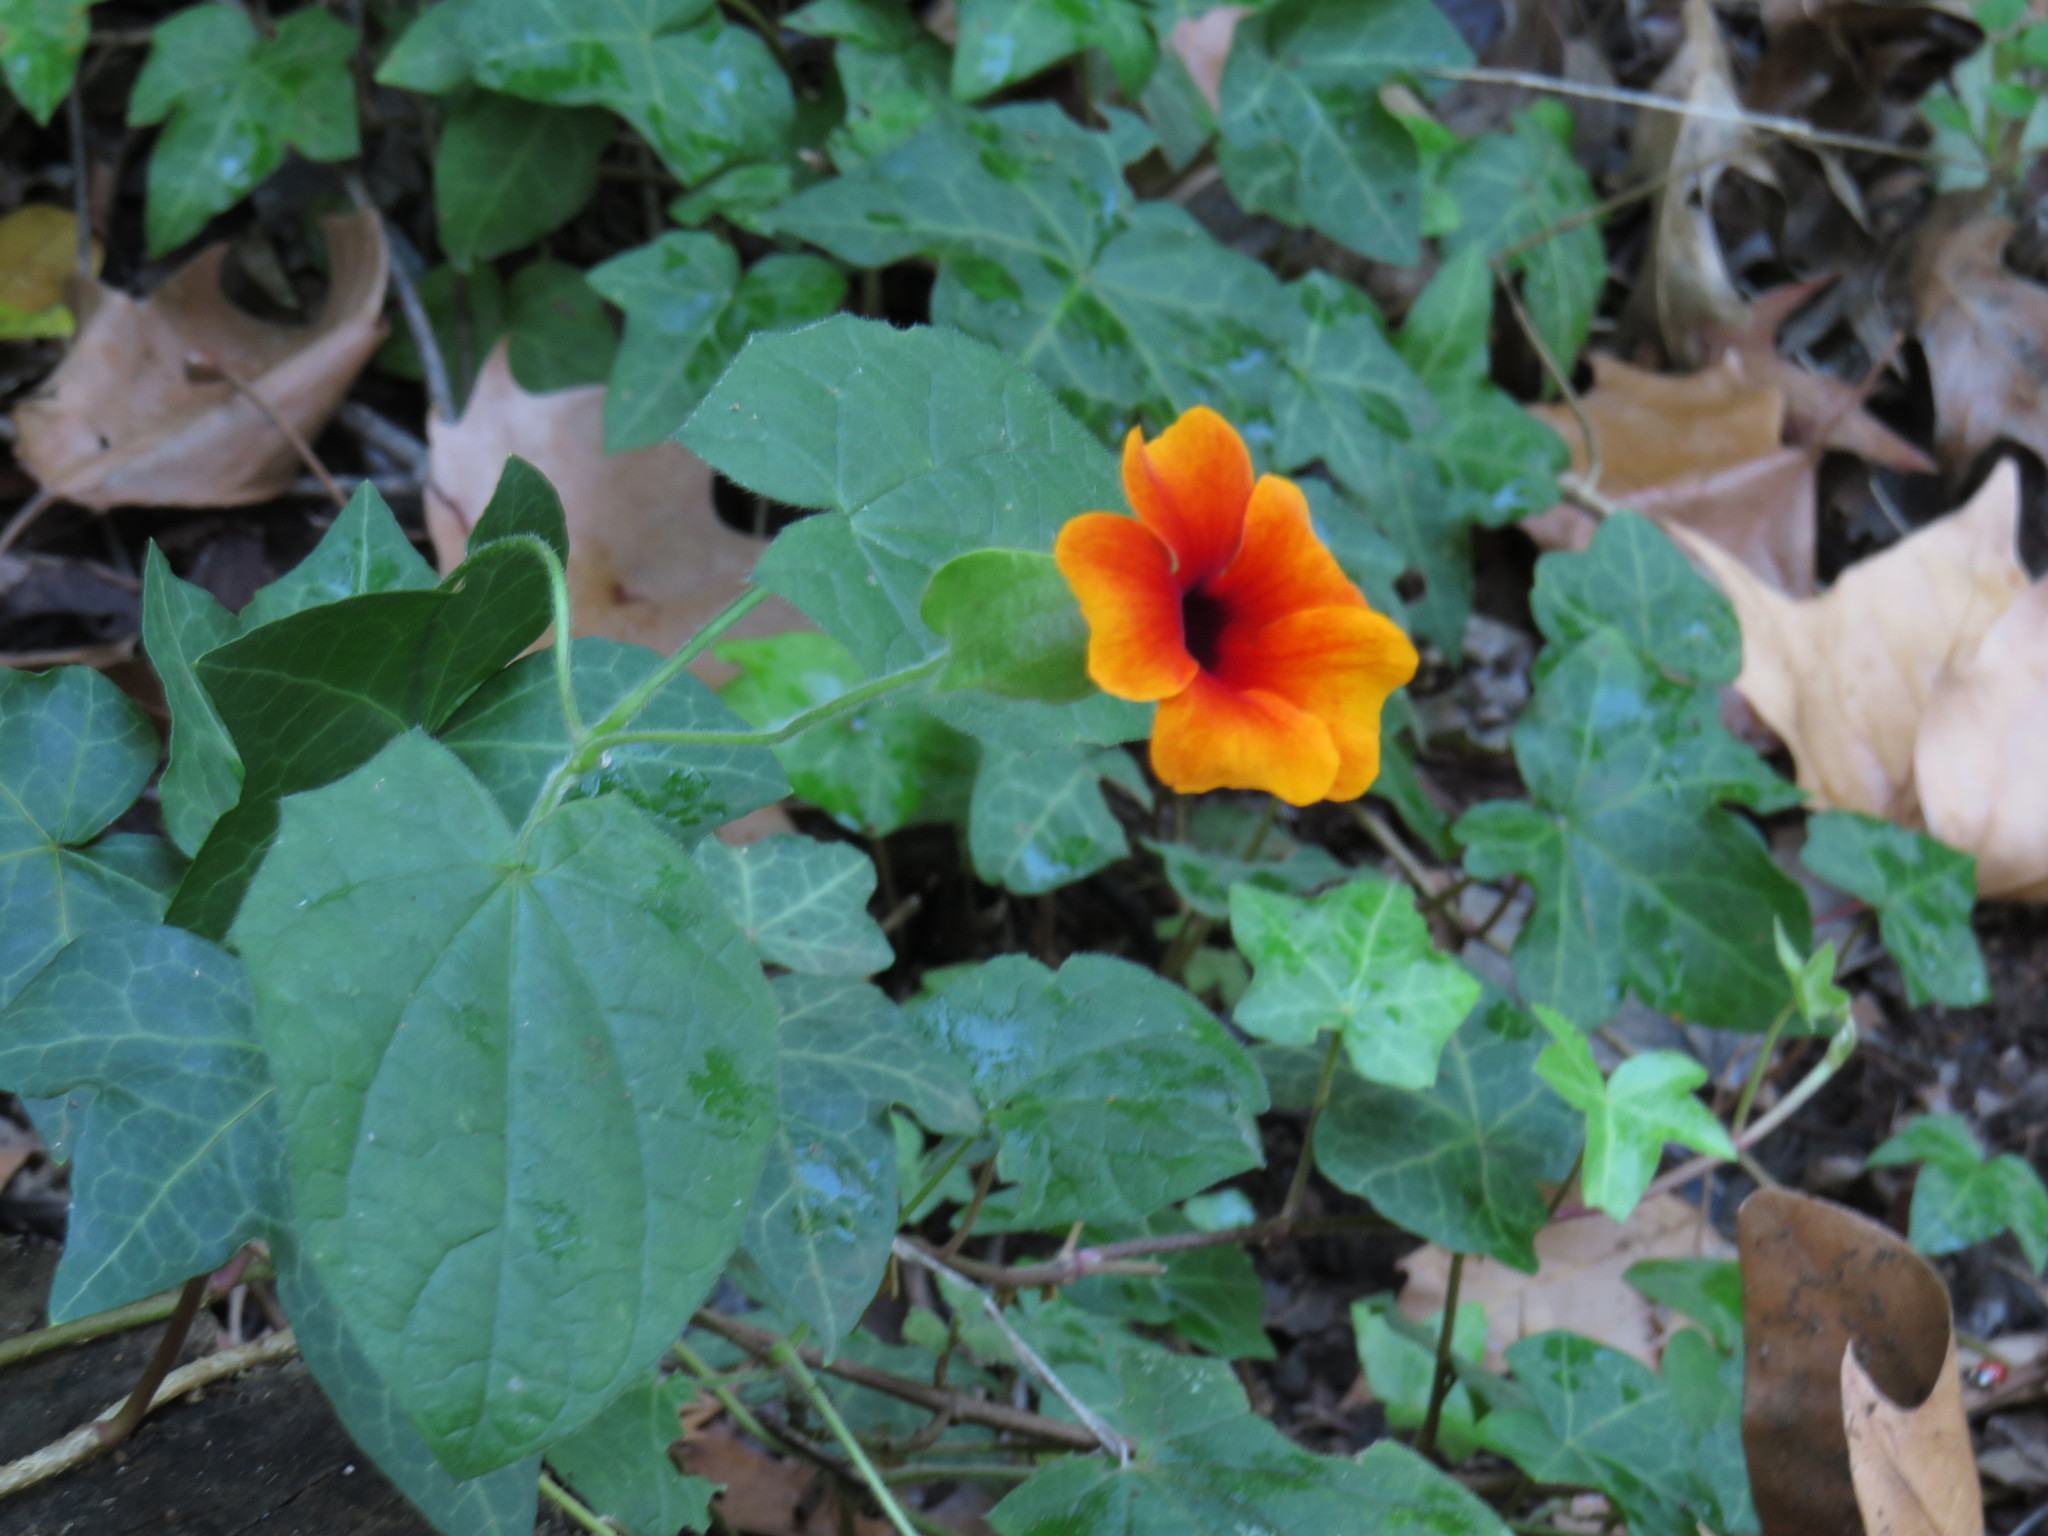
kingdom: Plantae
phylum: Tracheophyta
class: Magnoliopsida
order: Lamiales
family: Acanthaceae
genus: Thunbergia
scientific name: Thunbergia alata
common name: Blackeyed susan vine
